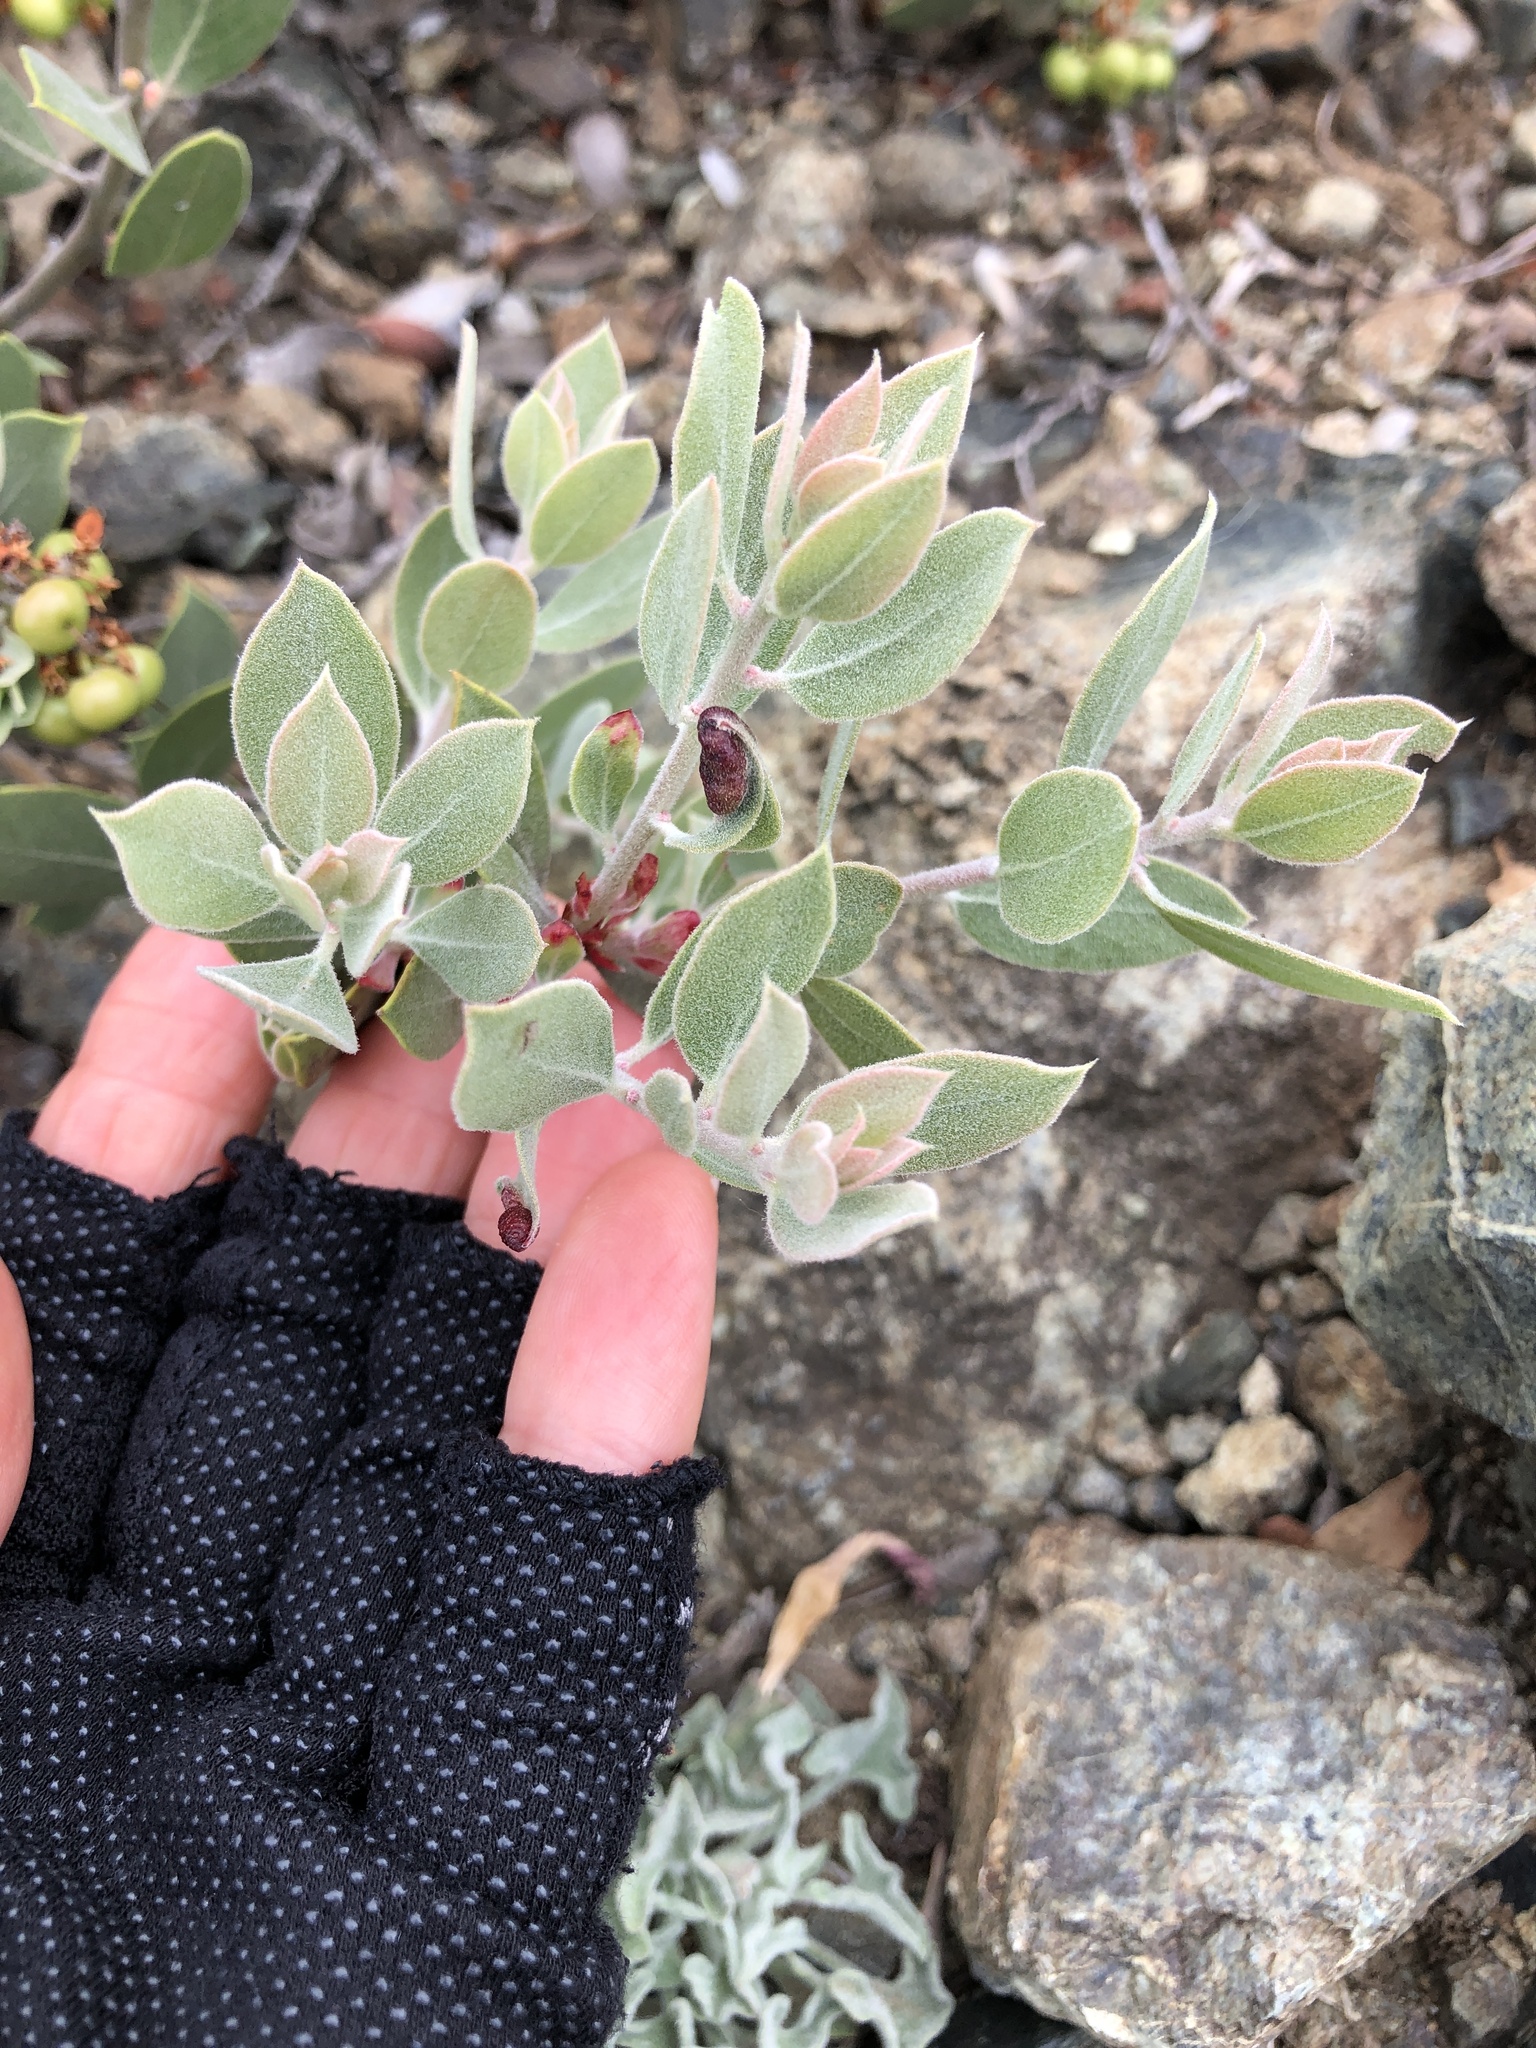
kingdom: Animalia
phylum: Arthropoda
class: Insecta
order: Hemiptera
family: Aphididae
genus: Tamalia
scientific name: Tamalia coweni
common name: Manzanita leafgall aphid
